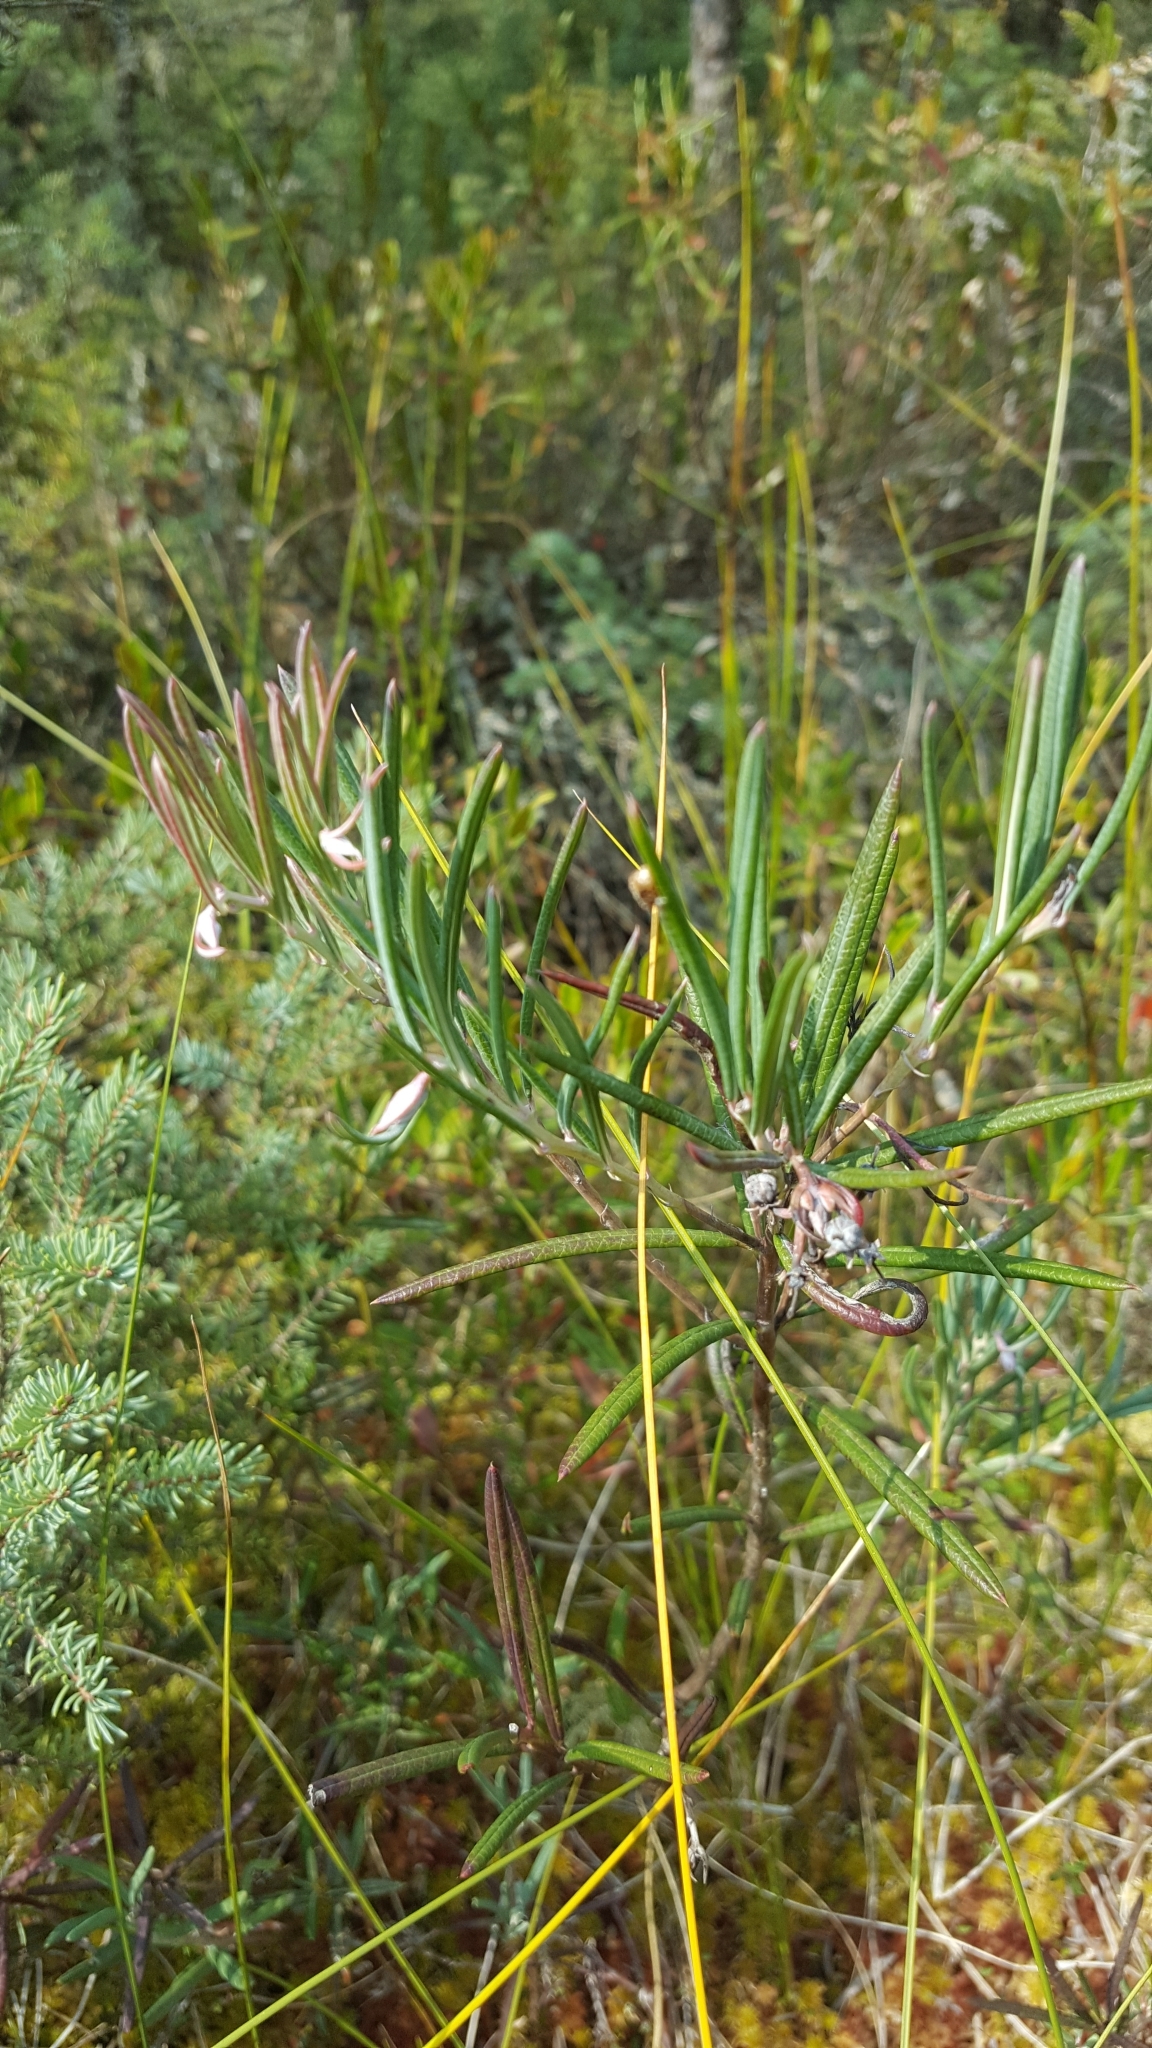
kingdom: Plantae
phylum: Tracheophyta
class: Magnoliopsida
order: Ericales
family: Ericaceae
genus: Andromeda
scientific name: Andromeda polifolia
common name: Bog-rosemary
